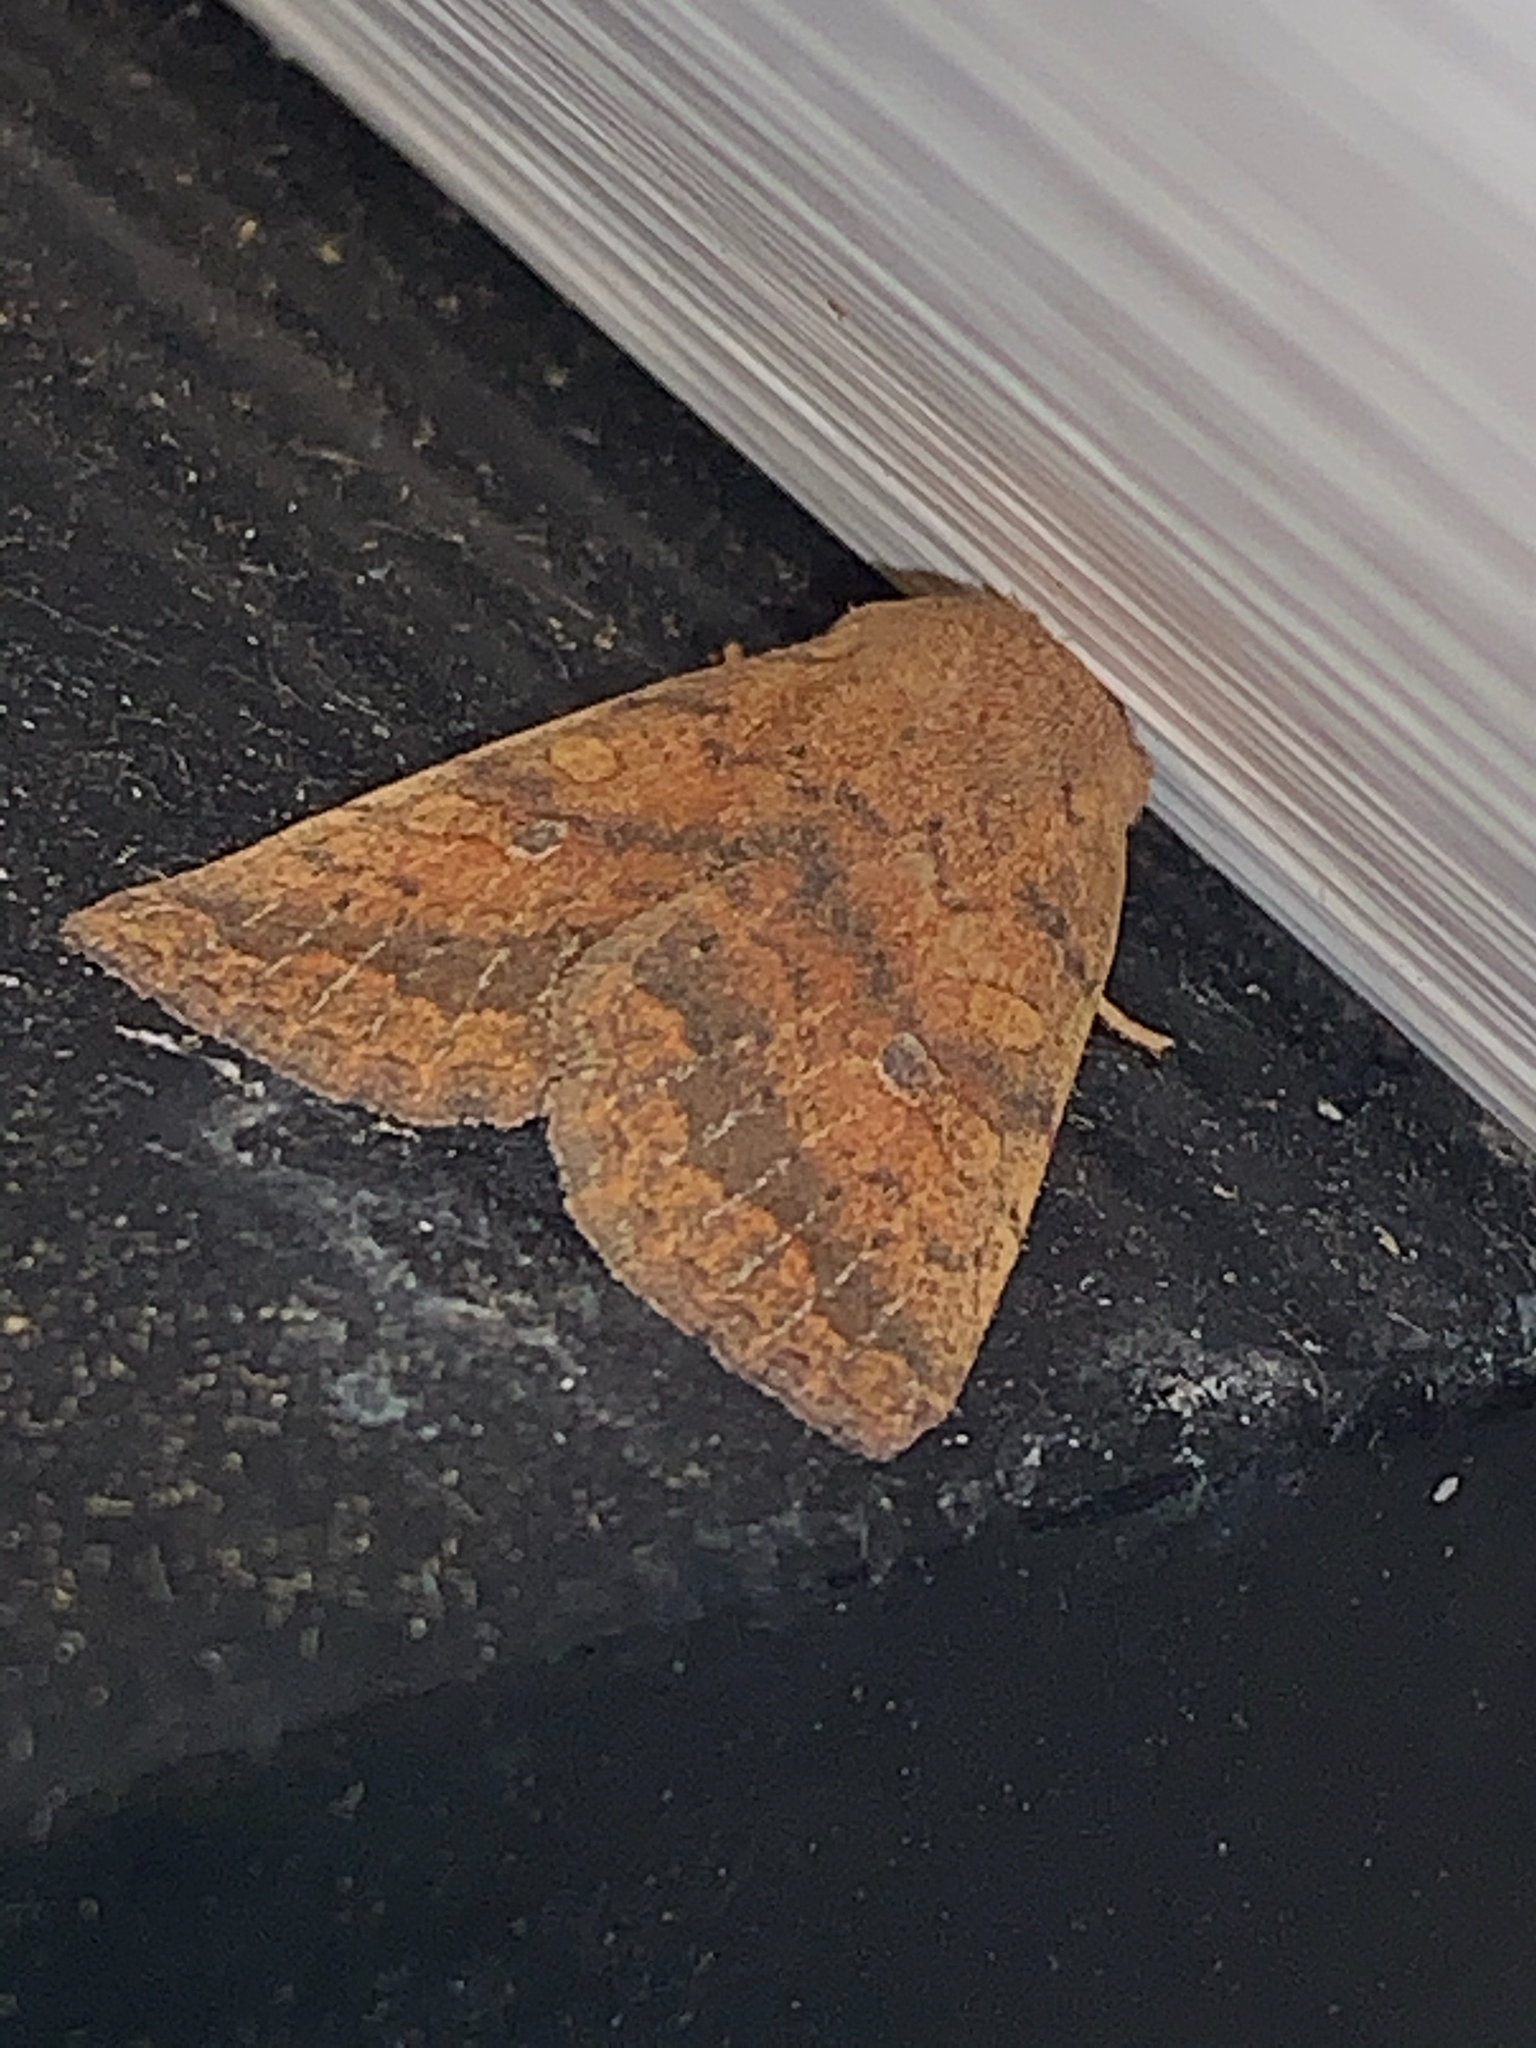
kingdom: Animalia
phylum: Arthropoda
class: Insecta
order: Lepidoptera
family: Noctuidae
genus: Agrochola
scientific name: Agrochola bicolorago
